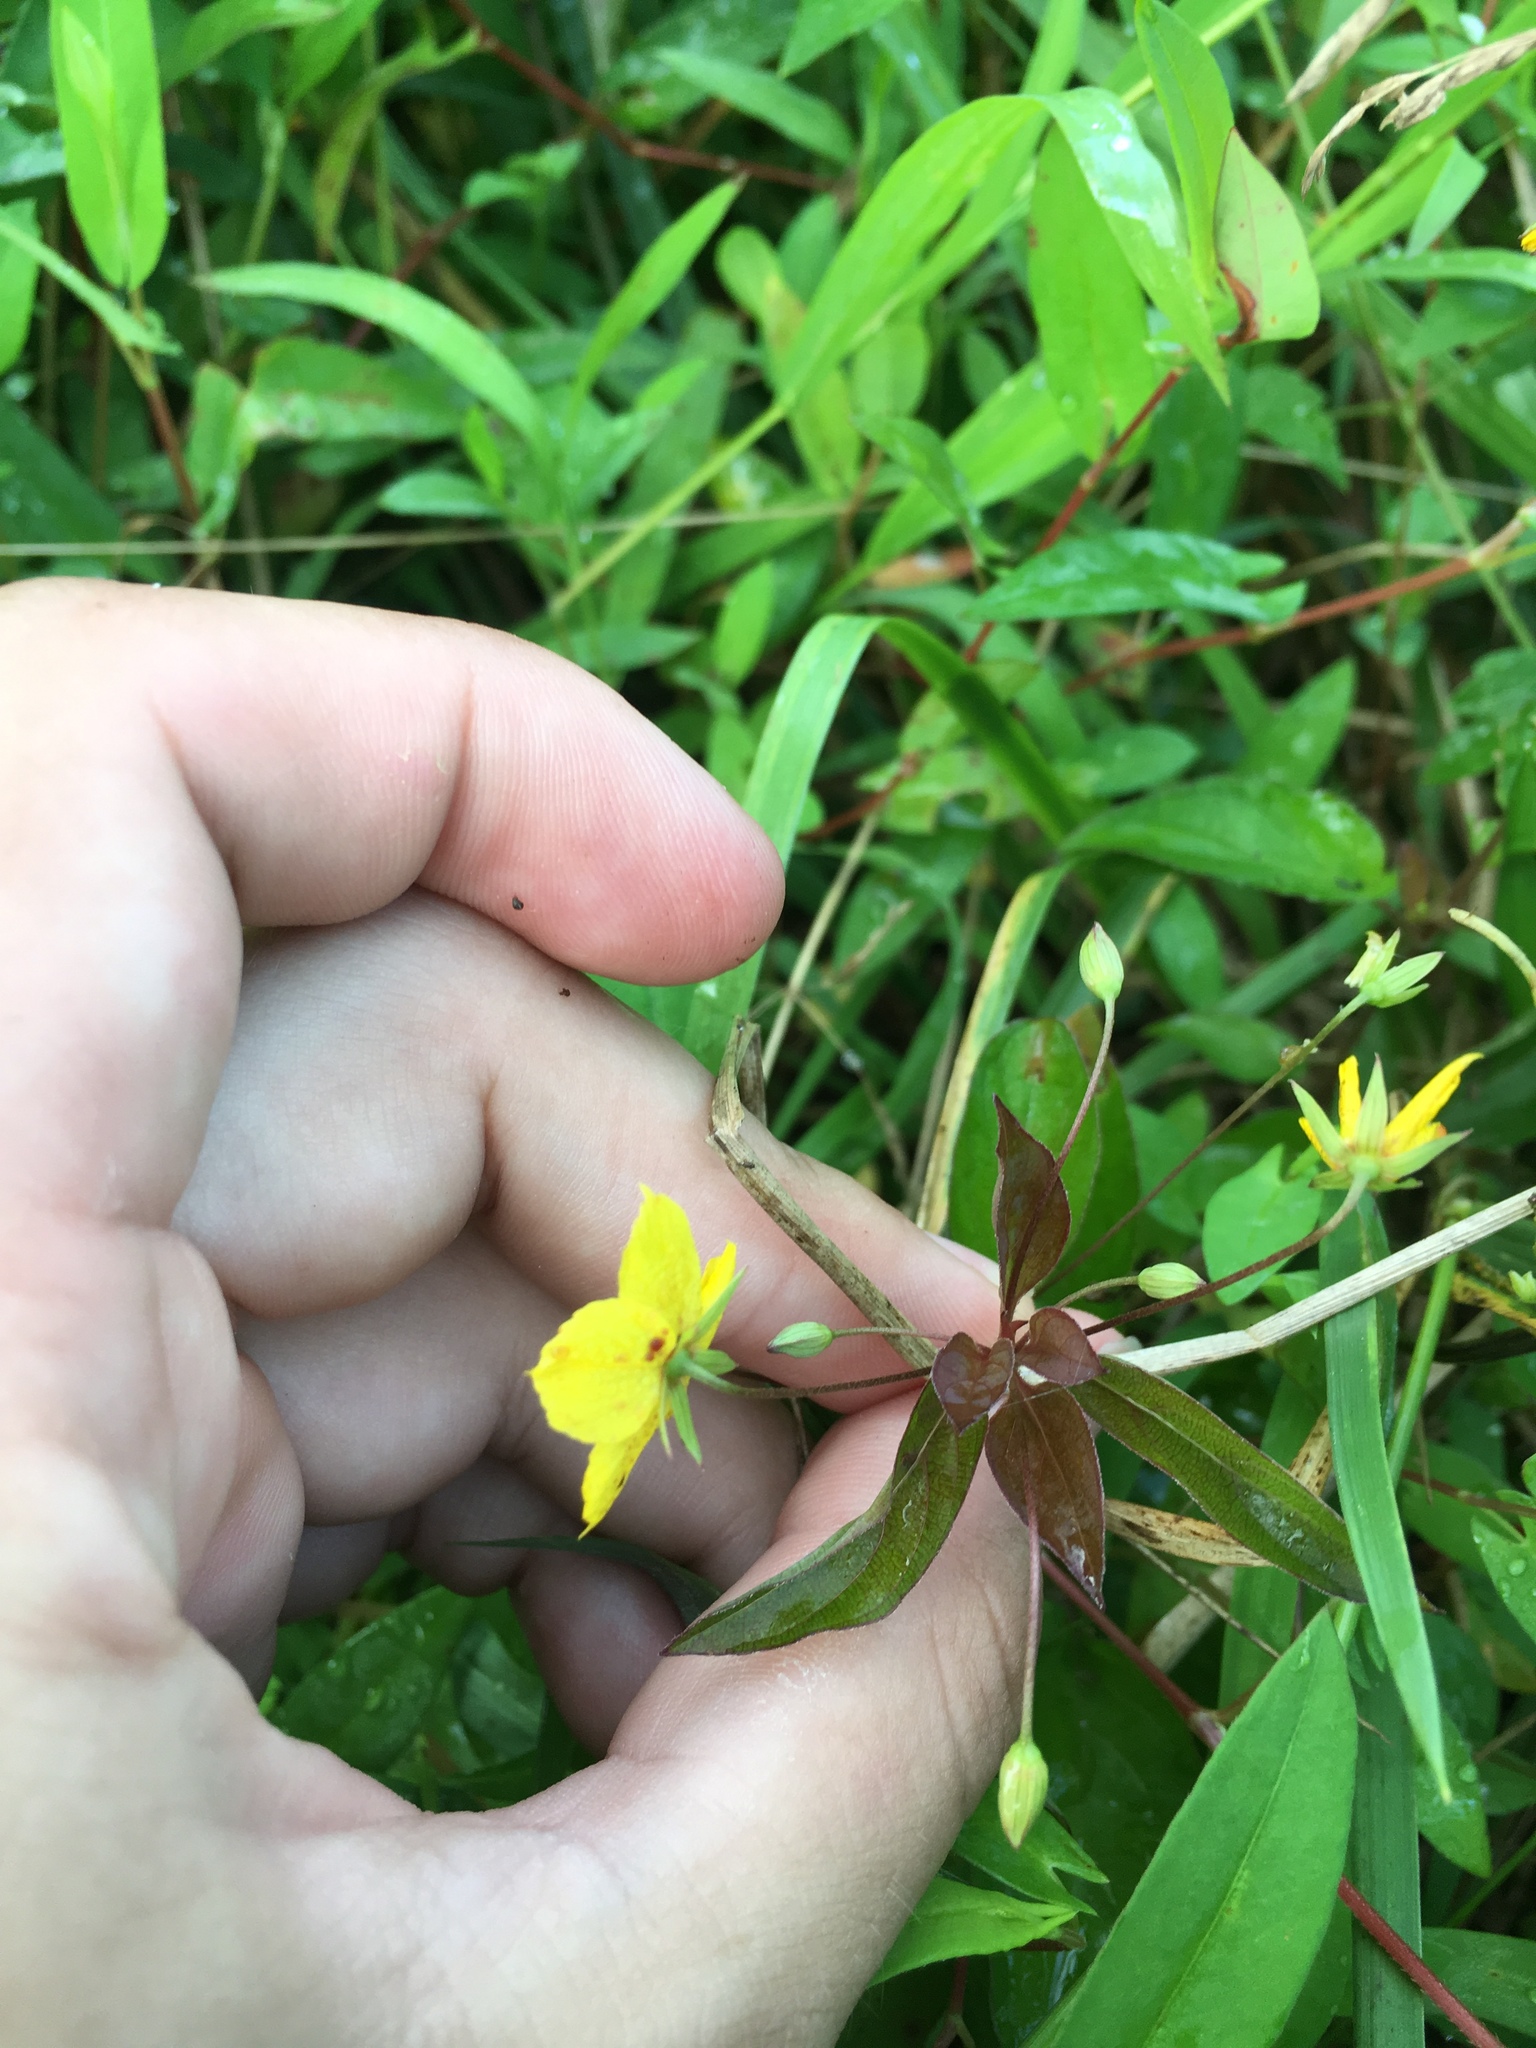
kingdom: Plantae
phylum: Tracheophyta
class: Magnoliopsida
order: Ericales
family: Primulaceae
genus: Lysimachia
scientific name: Lysimachia ciliata
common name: Fringed loosestrife
